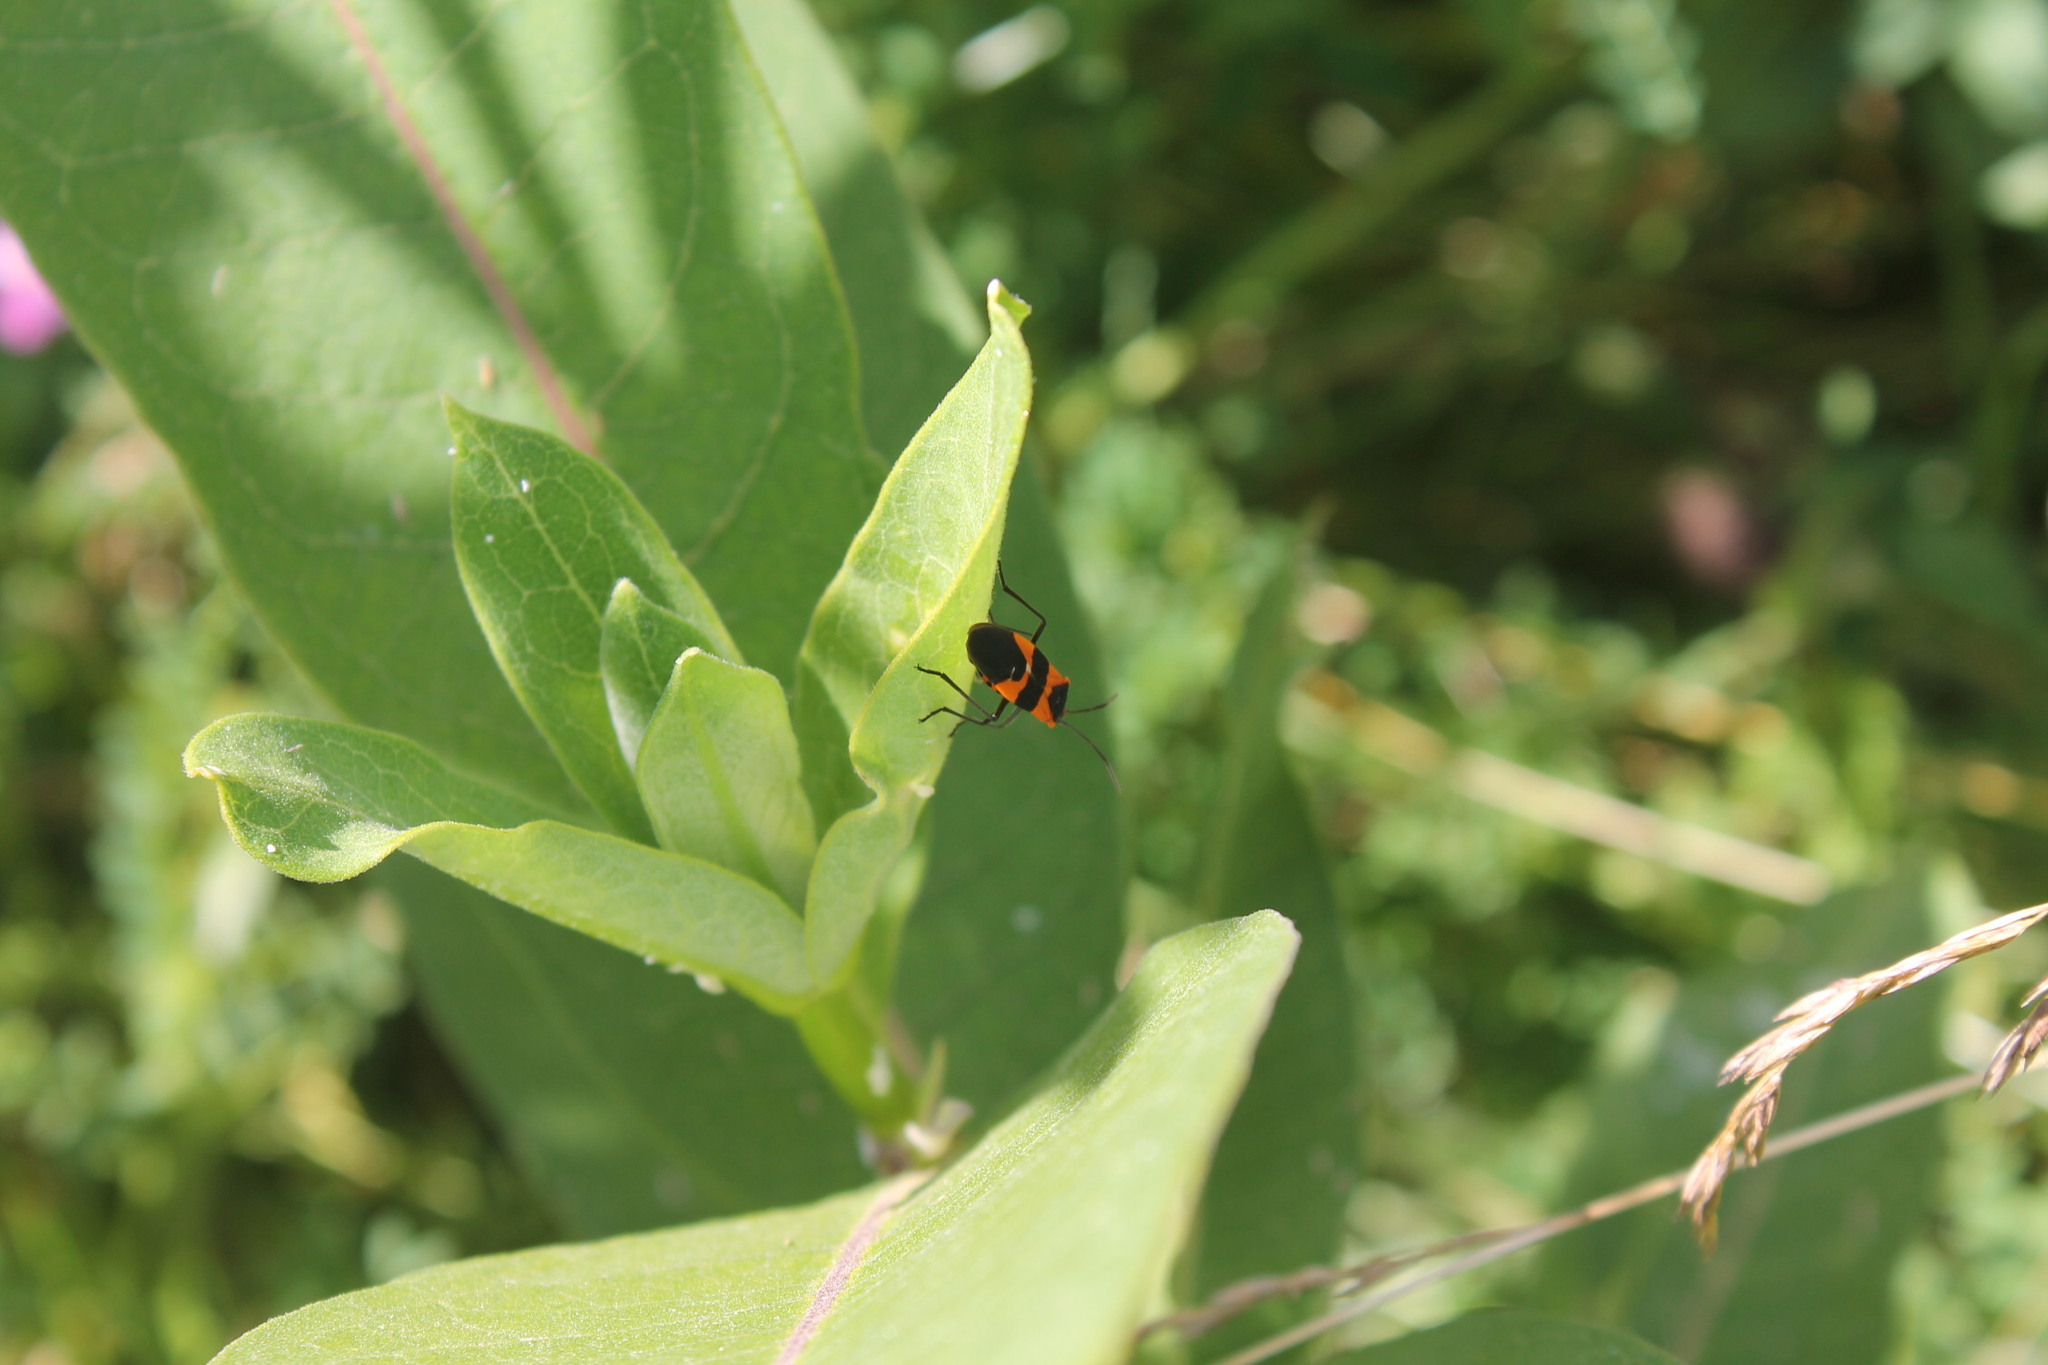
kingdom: Animalia
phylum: Arthropoda
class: Insecta
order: Hemiptera
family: Lygaeidae
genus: Oncopeltus
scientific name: Oncopeltus fasciatus
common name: Large milkweed bug
